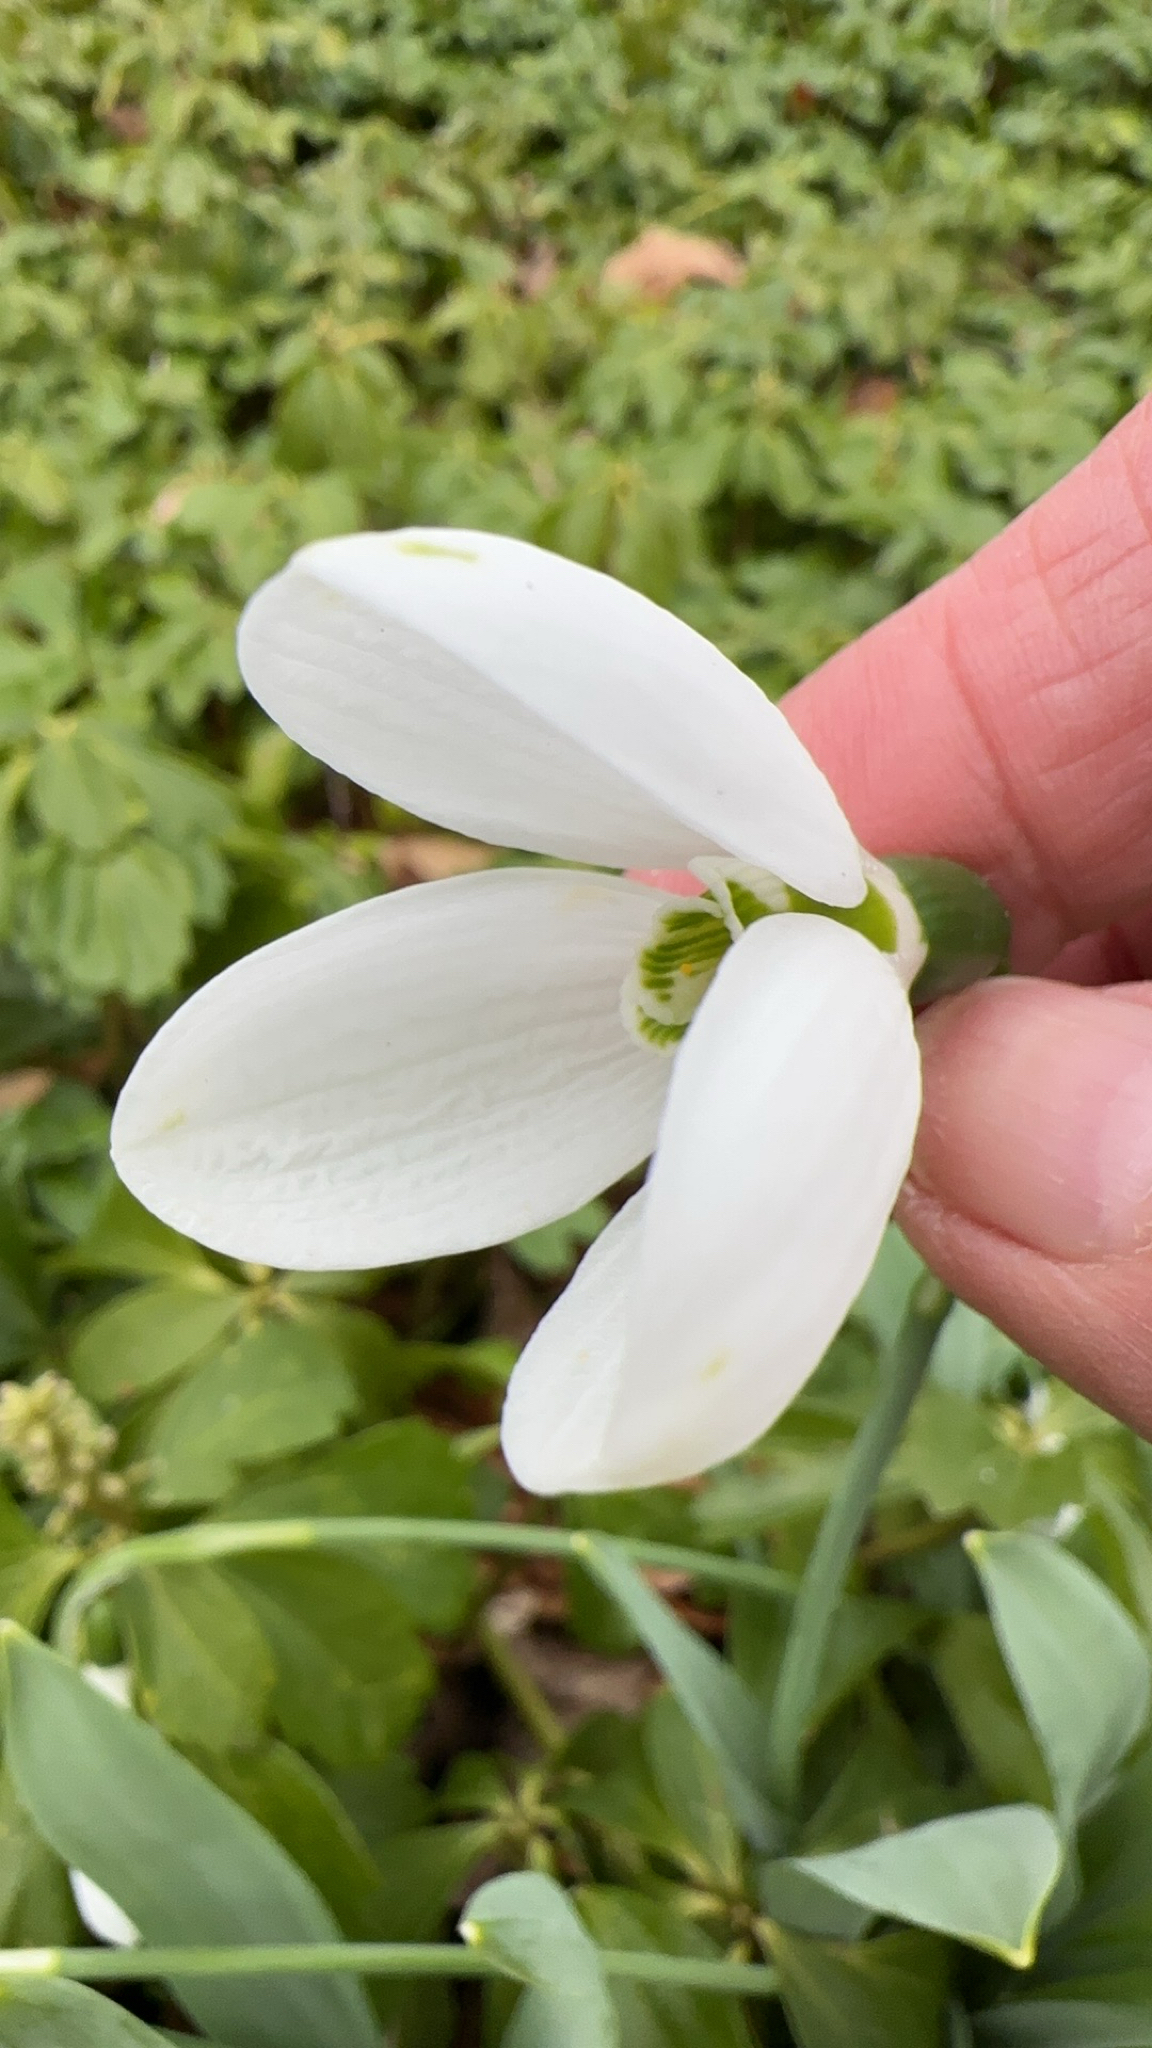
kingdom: Plantae
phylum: Tracheophyta
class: Liliopsida
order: Asparagales
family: Amaryllidaceae
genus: Galanthus
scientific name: Galanthus elwesii
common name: Greater snowdrop
